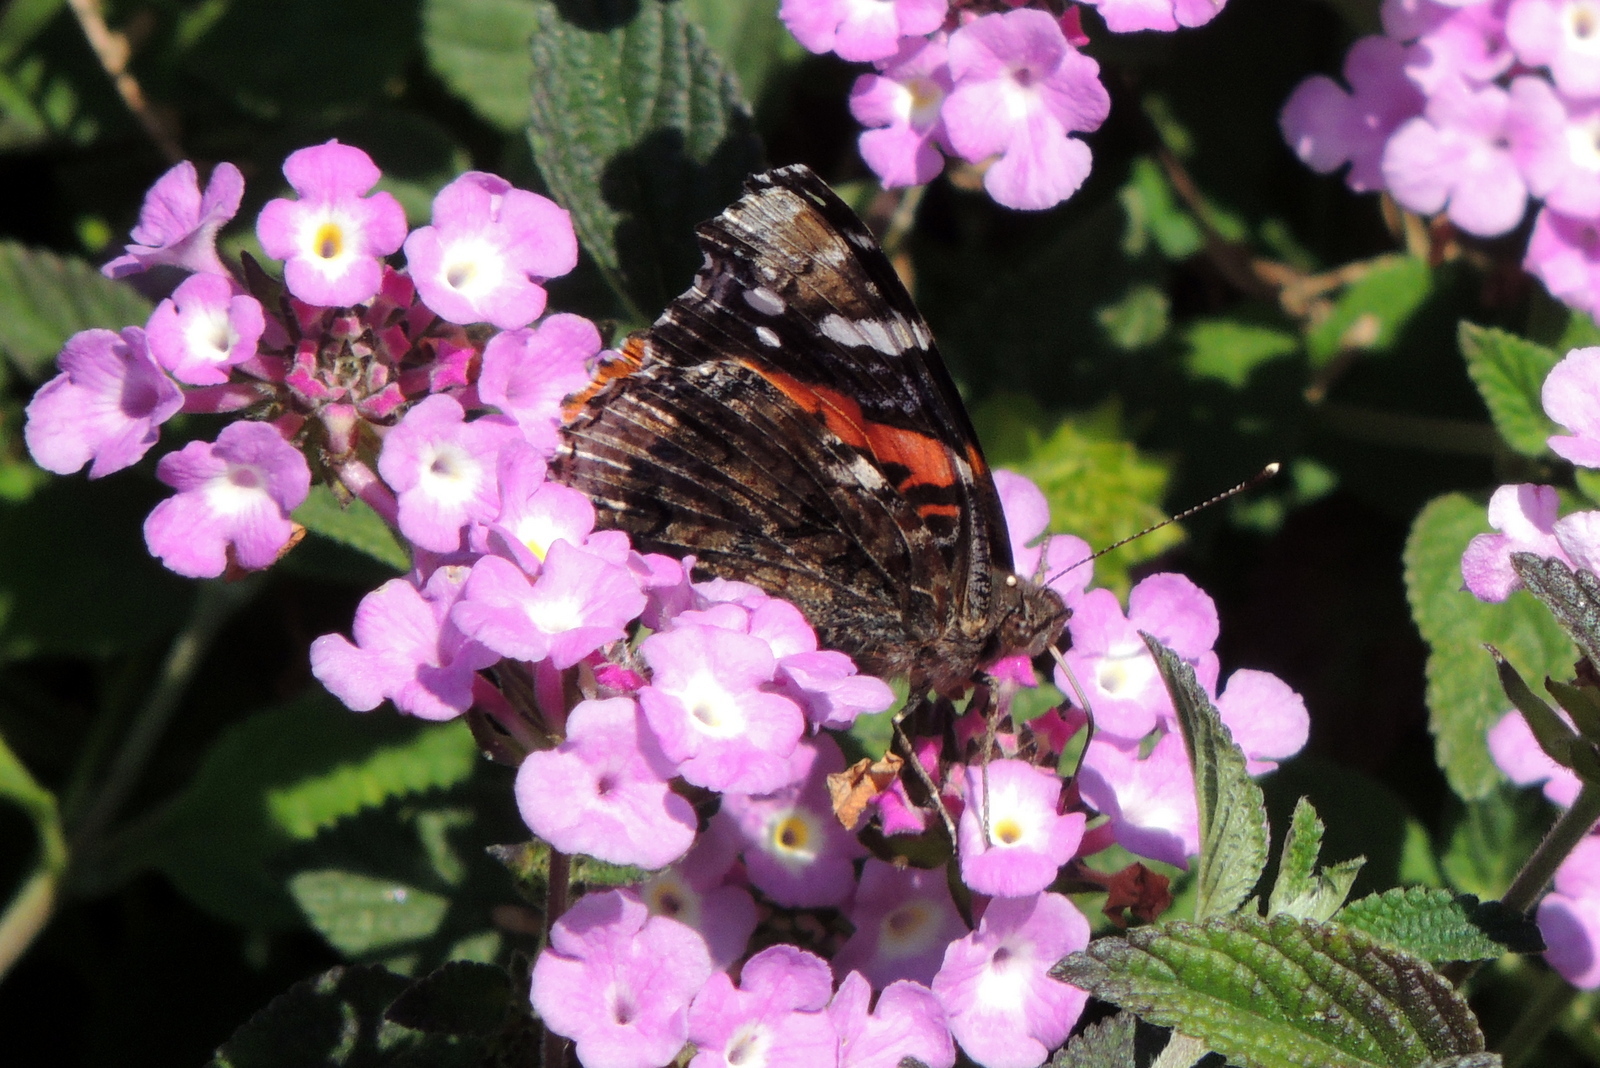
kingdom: Animalia
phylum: Arthropoda
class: Insecta
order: Lepidoptera
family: Nymphalidae
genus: Vanessa
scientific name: Vanessa atalanta
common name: Red admiral
